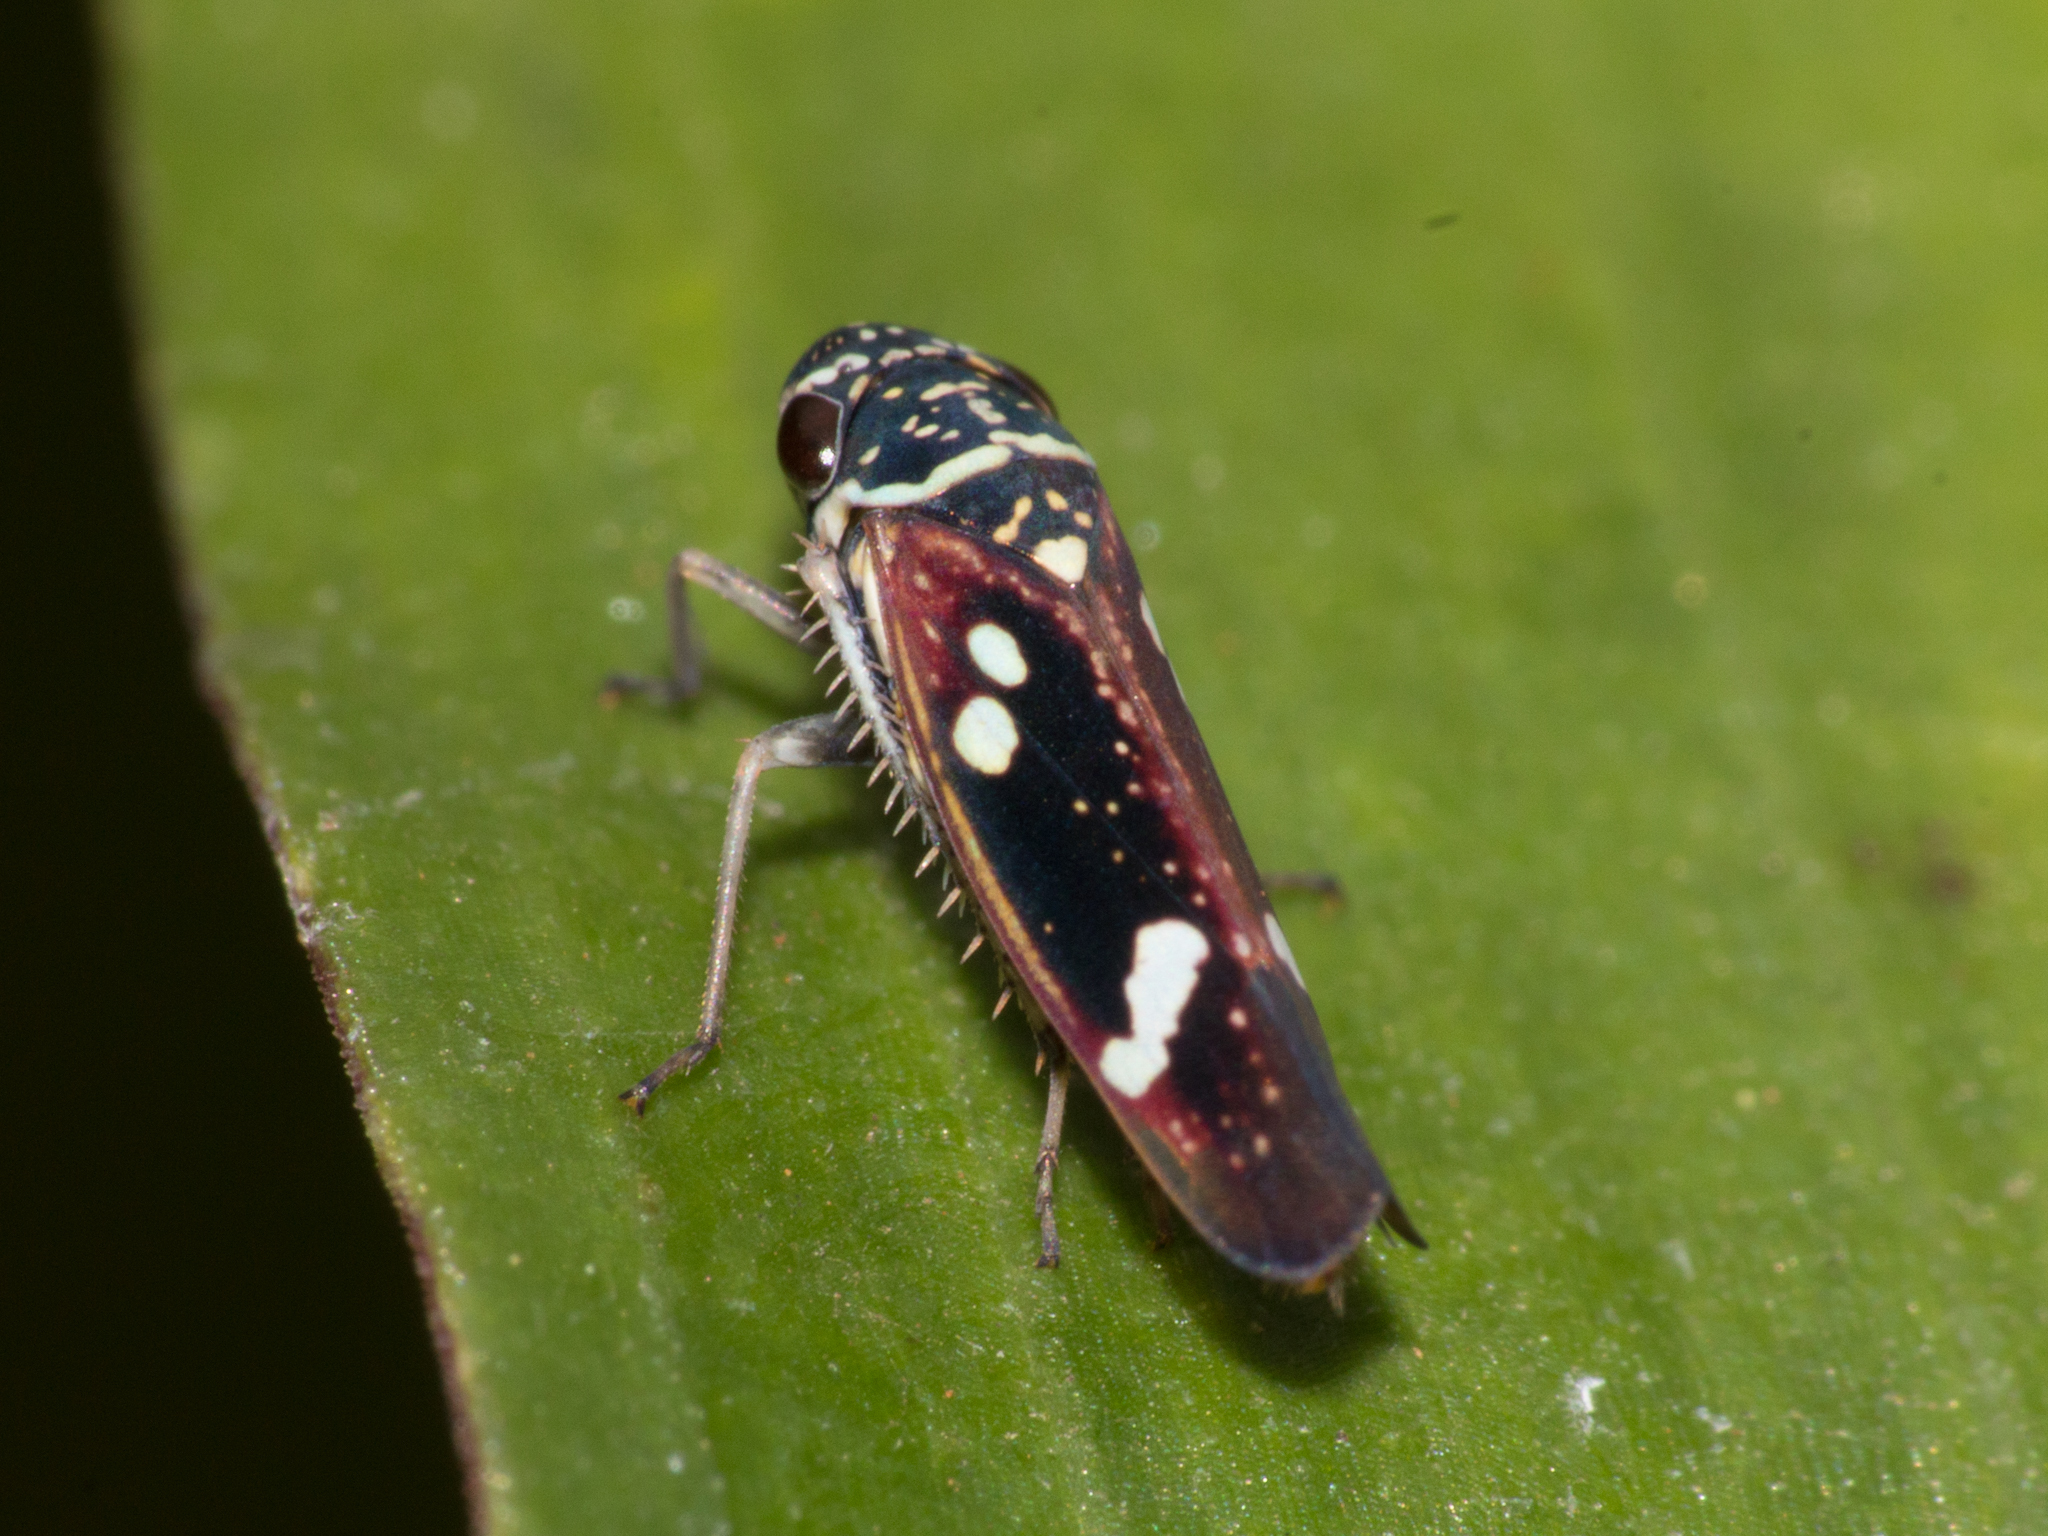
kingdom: Animalia
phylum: Arthropoda
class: Insecta
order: Hemiptera
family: Cicadellidae
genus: Macugonalia
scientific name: Macugonalia leucomelas
